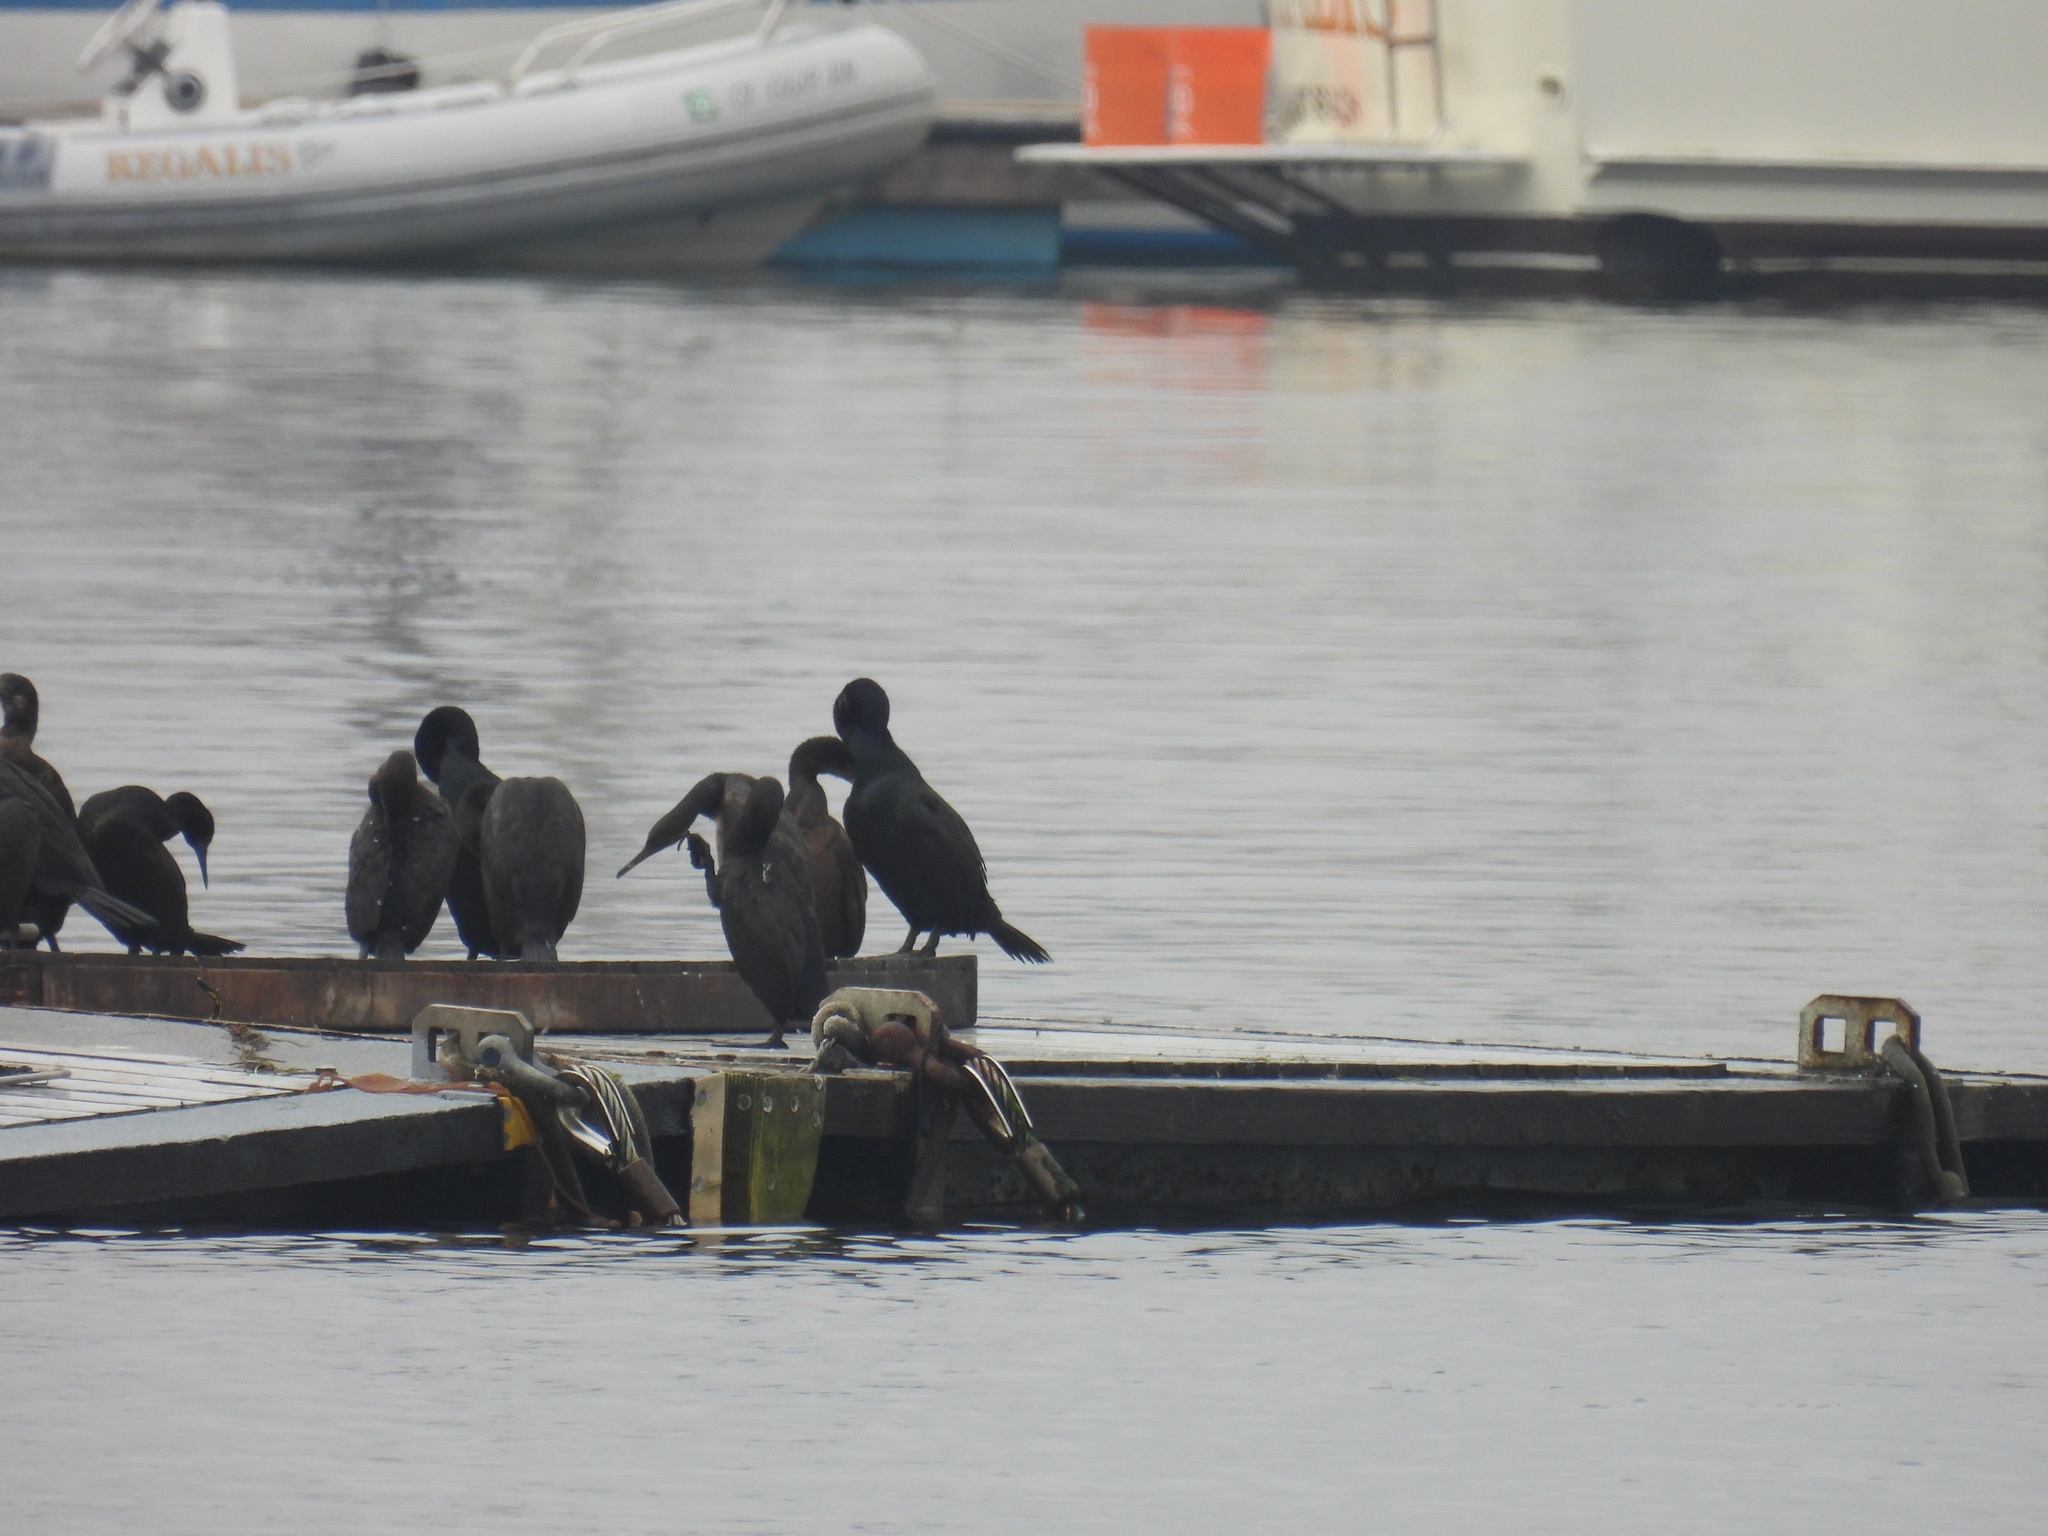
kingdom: Animalia
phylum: Chordata
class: Aves
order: Suliformes
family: Phalacrocoracidae
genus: Urile
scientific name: Urile penicillatus
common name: Brandt's cormorant
